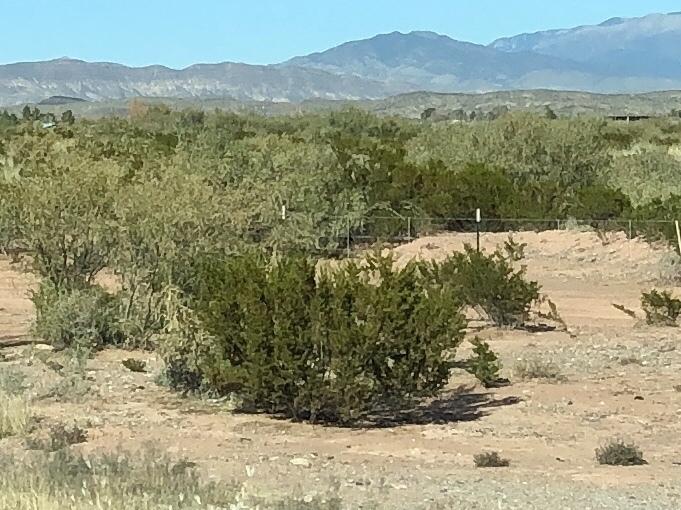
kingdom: Plantae
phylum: Tracheophyta
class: Magnoliopsida
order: Zygophyllales
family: Zygophyllaceae
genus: Larrea
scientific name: Larrea tridentata
